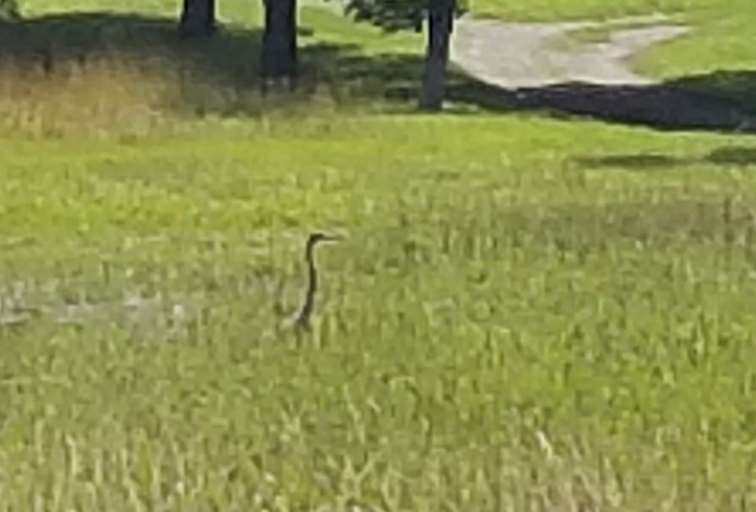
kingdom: Animalia
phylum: Chordata
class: Aves
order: Pelecaniformes
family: Ardeidae
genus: Ardea
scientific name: Ardea herodias
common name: Great blue heron
